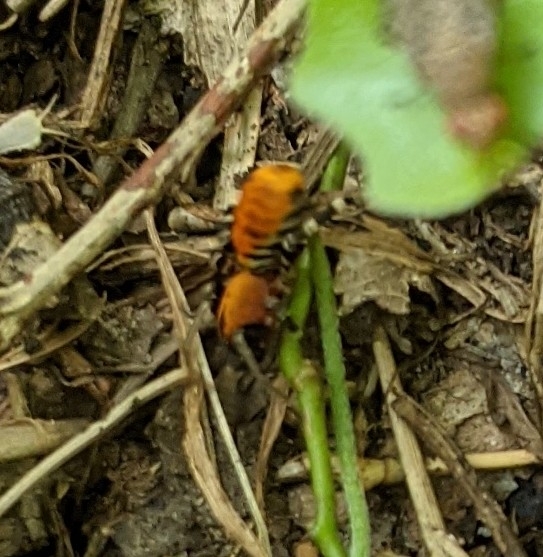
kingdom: Animalia
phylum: Arthropoda
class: Arachnida
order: Araneae
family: Corinnidae
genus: Castianeira
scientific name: Castianeira amoena
